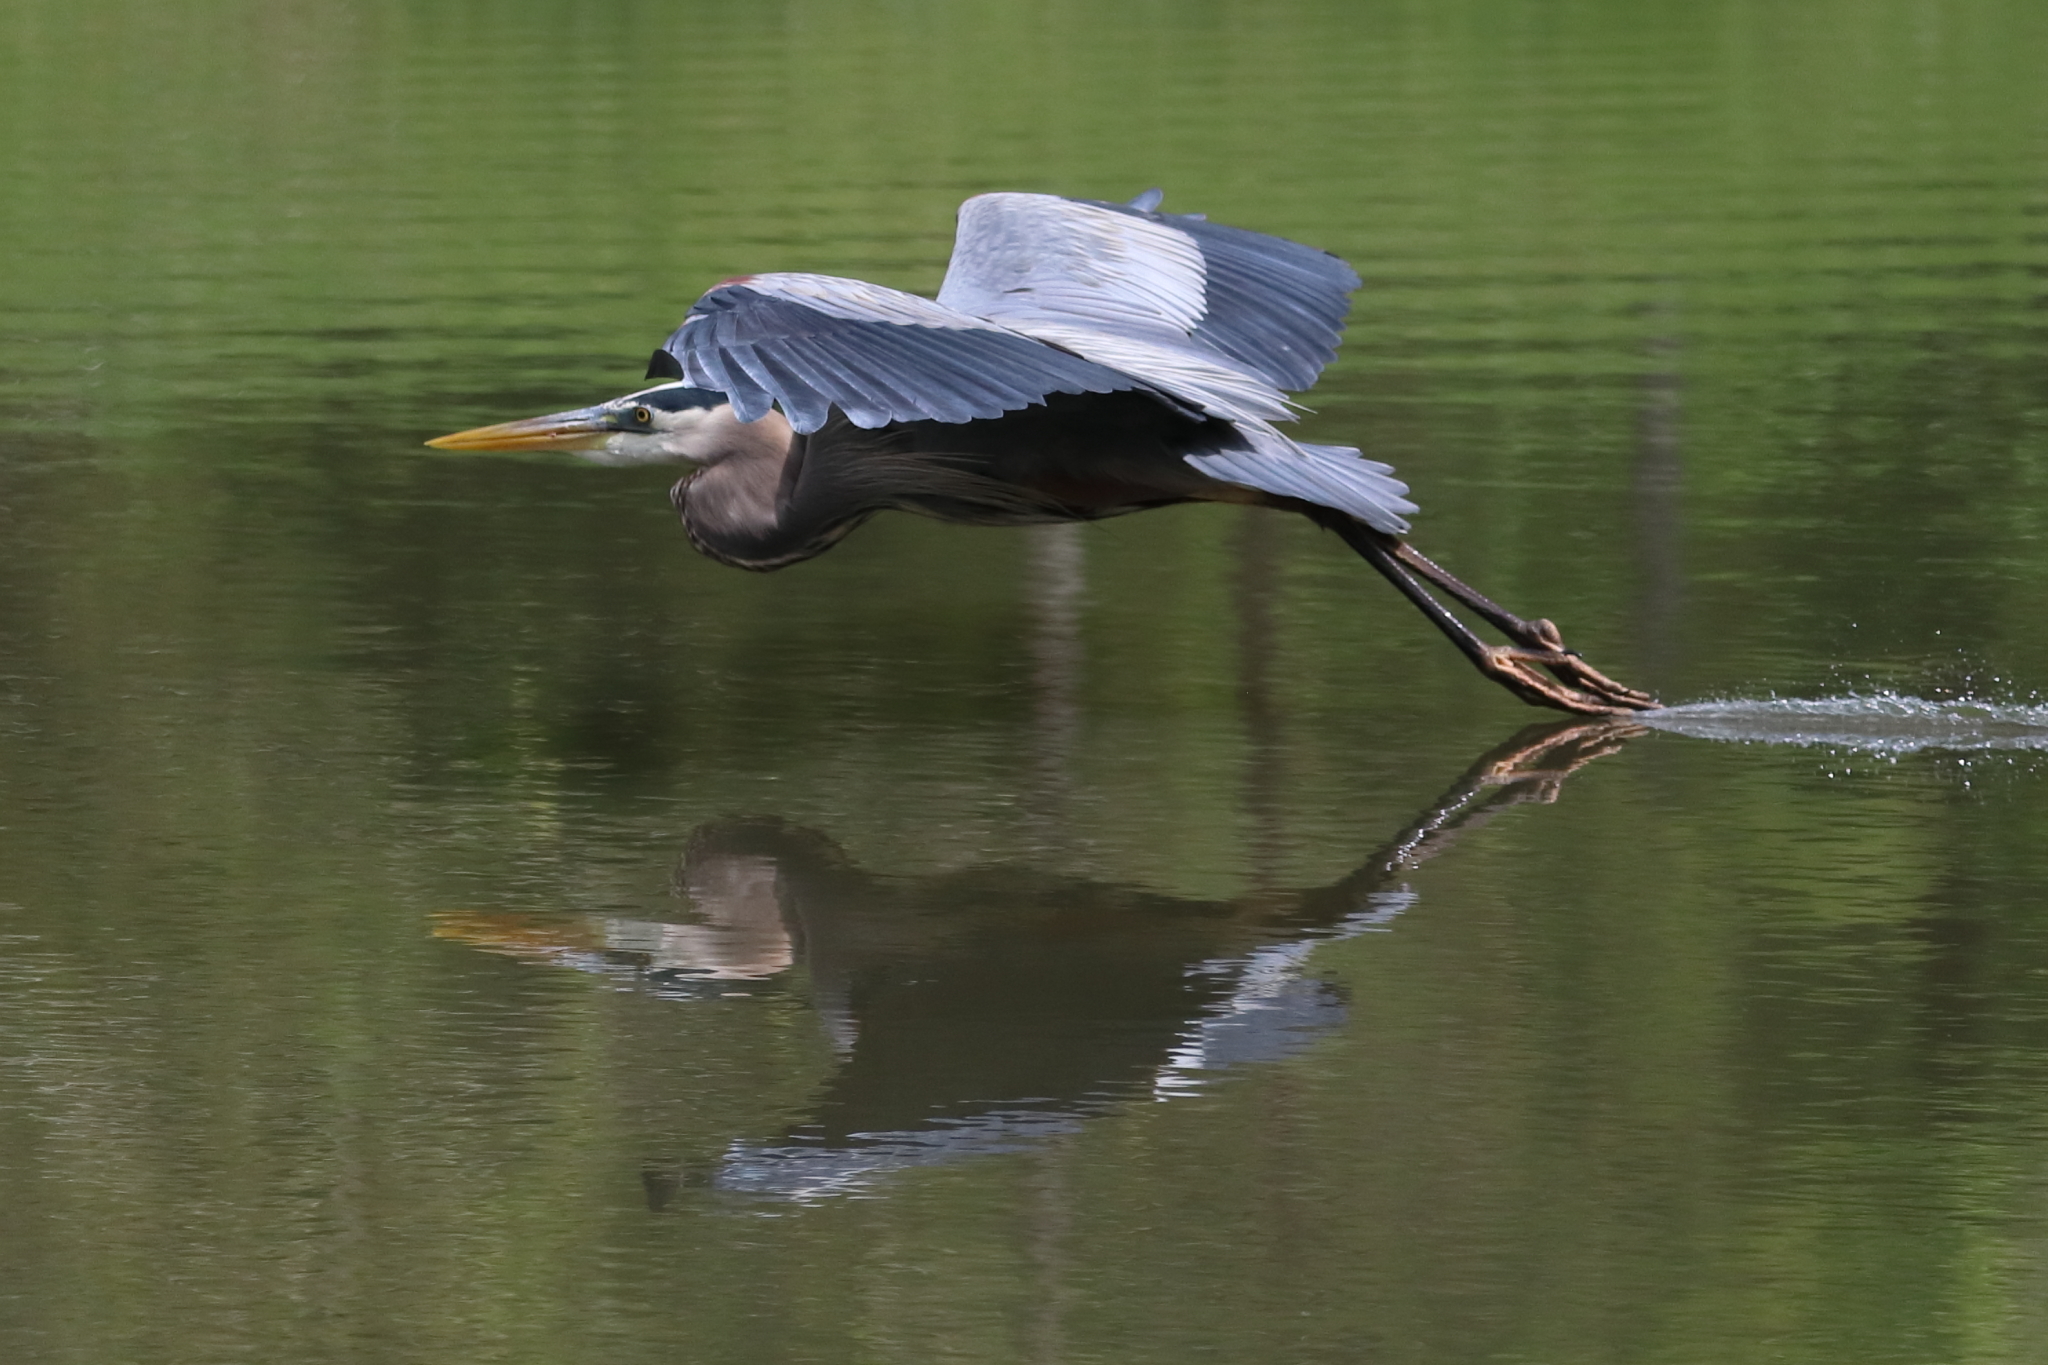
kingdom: Animalia
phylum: Chordata
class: Aves
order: Pelecaniformes
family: Ardeidae
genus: Ardea
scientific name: Ardea herodias
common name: Great blue heron
